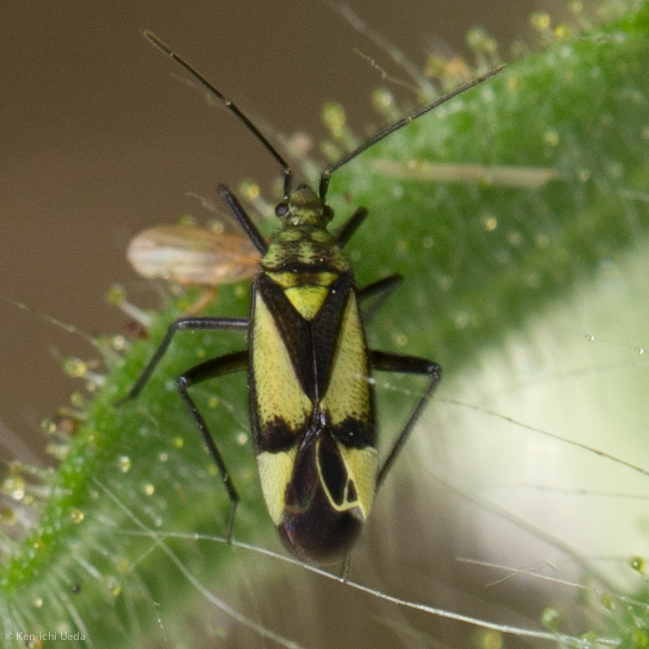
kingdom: Animalia
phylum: Arthropoda
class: Insecta
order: Hemiptera
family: Miridae
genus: Macrotylus
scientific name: Macrotylus essigi
